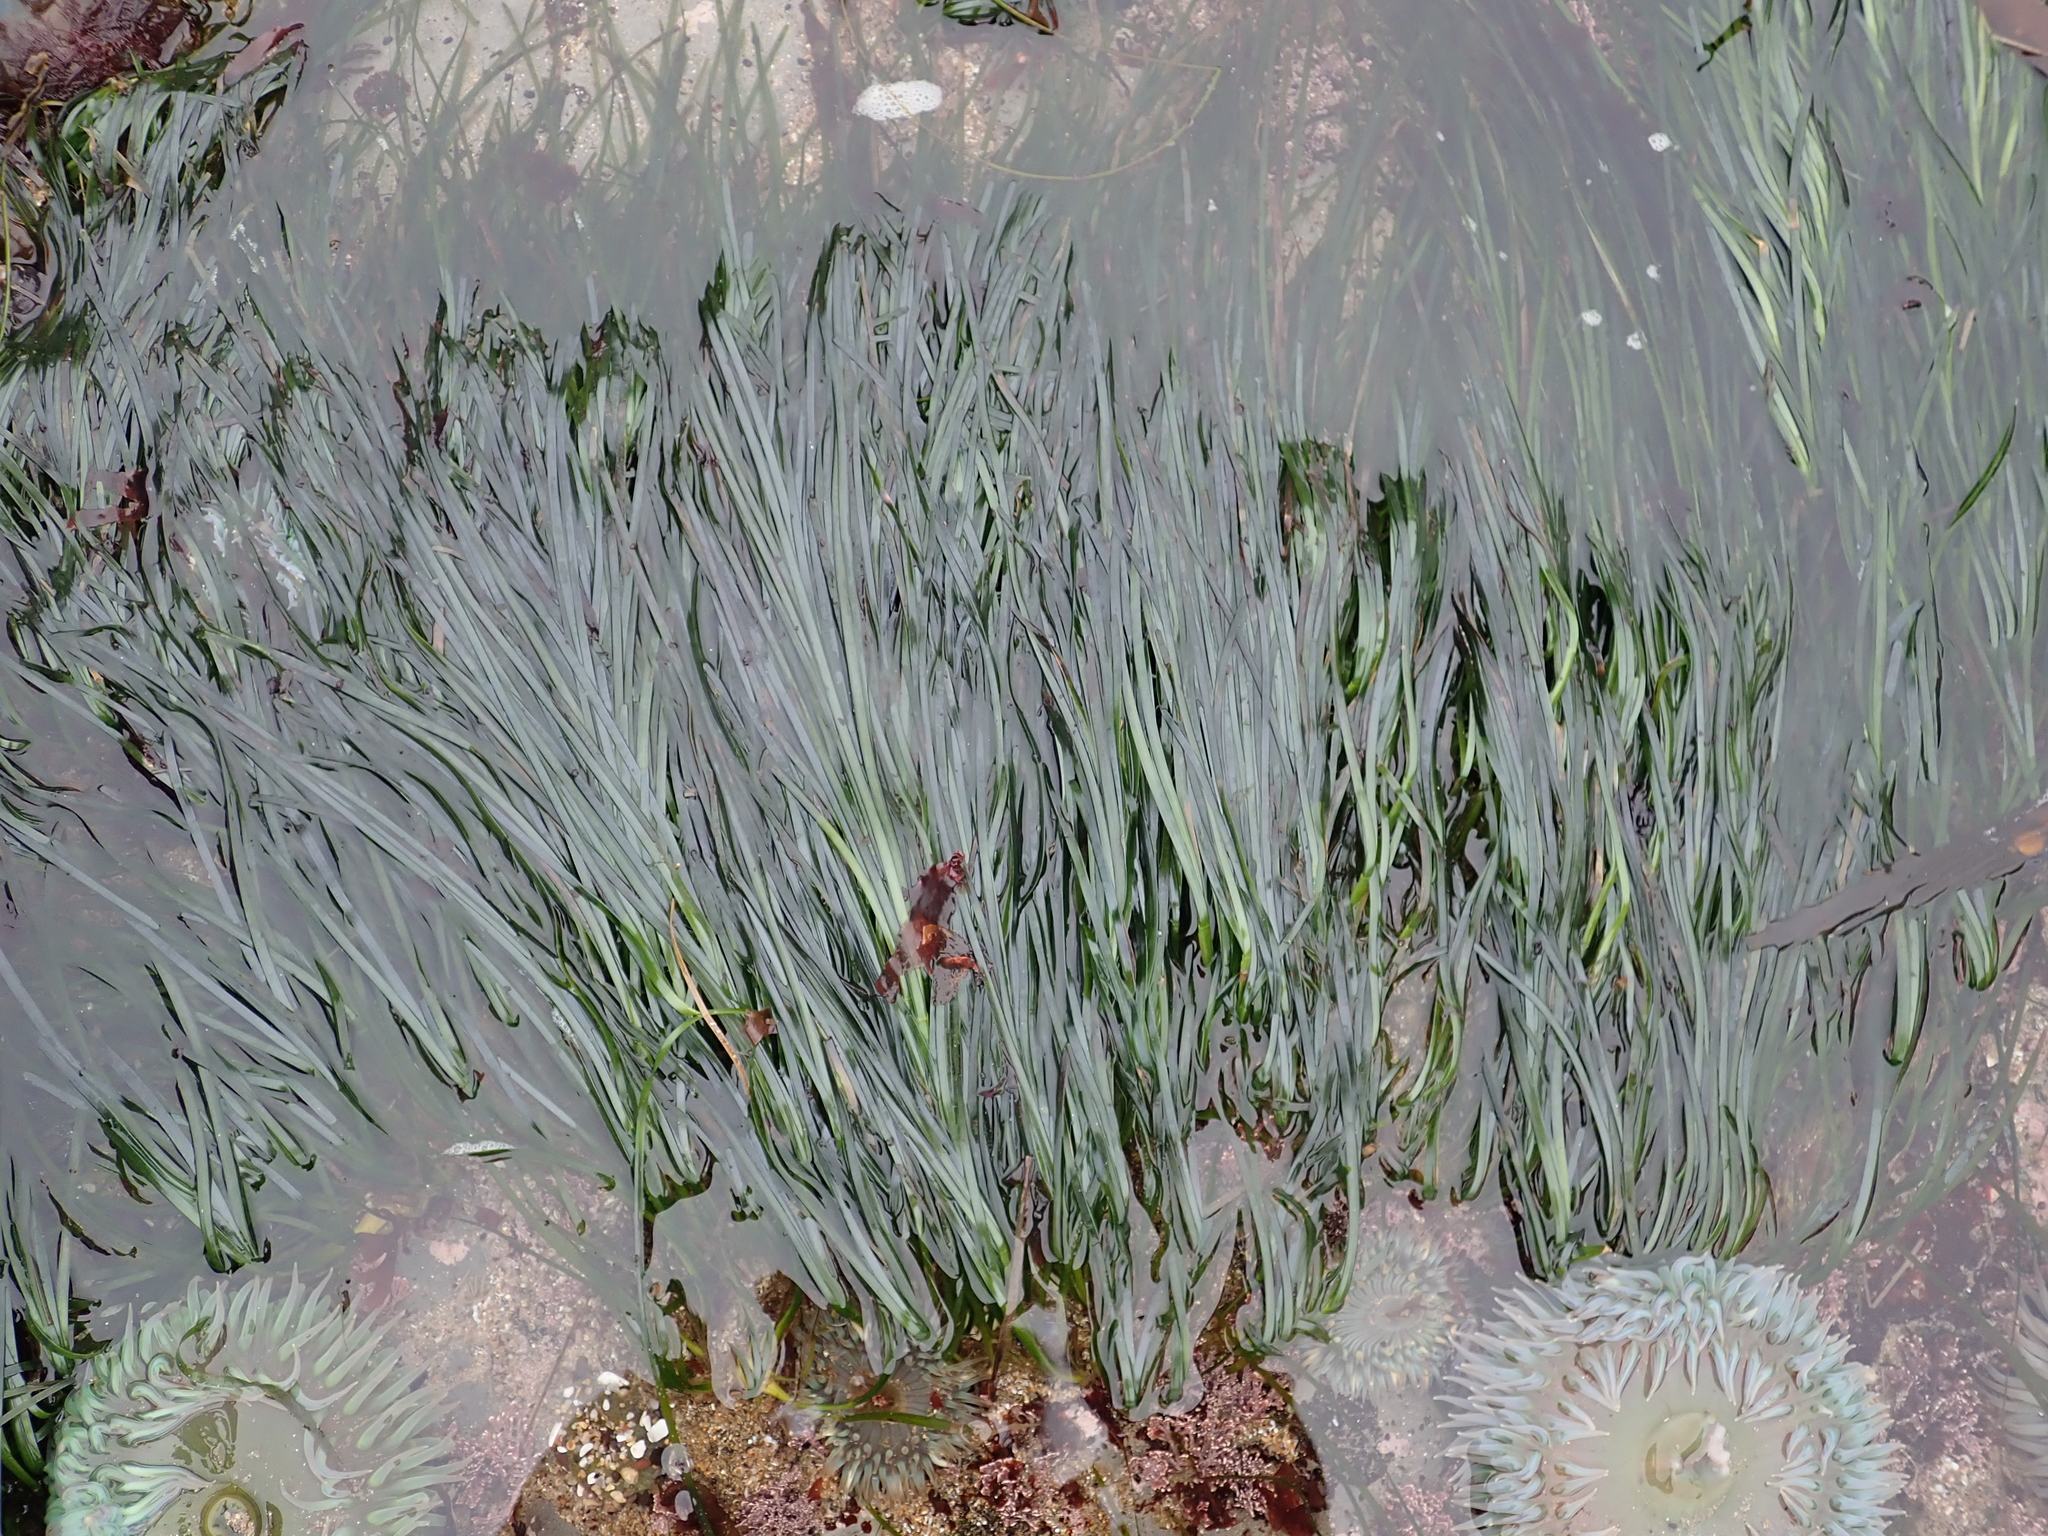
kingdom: Plantae
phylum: Tracheophyta
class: Liliopsida
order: Alismatales
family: Zosteraceae
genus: Phyllospadix
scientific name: Phyllospadix scouleri
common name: Species code: ps
